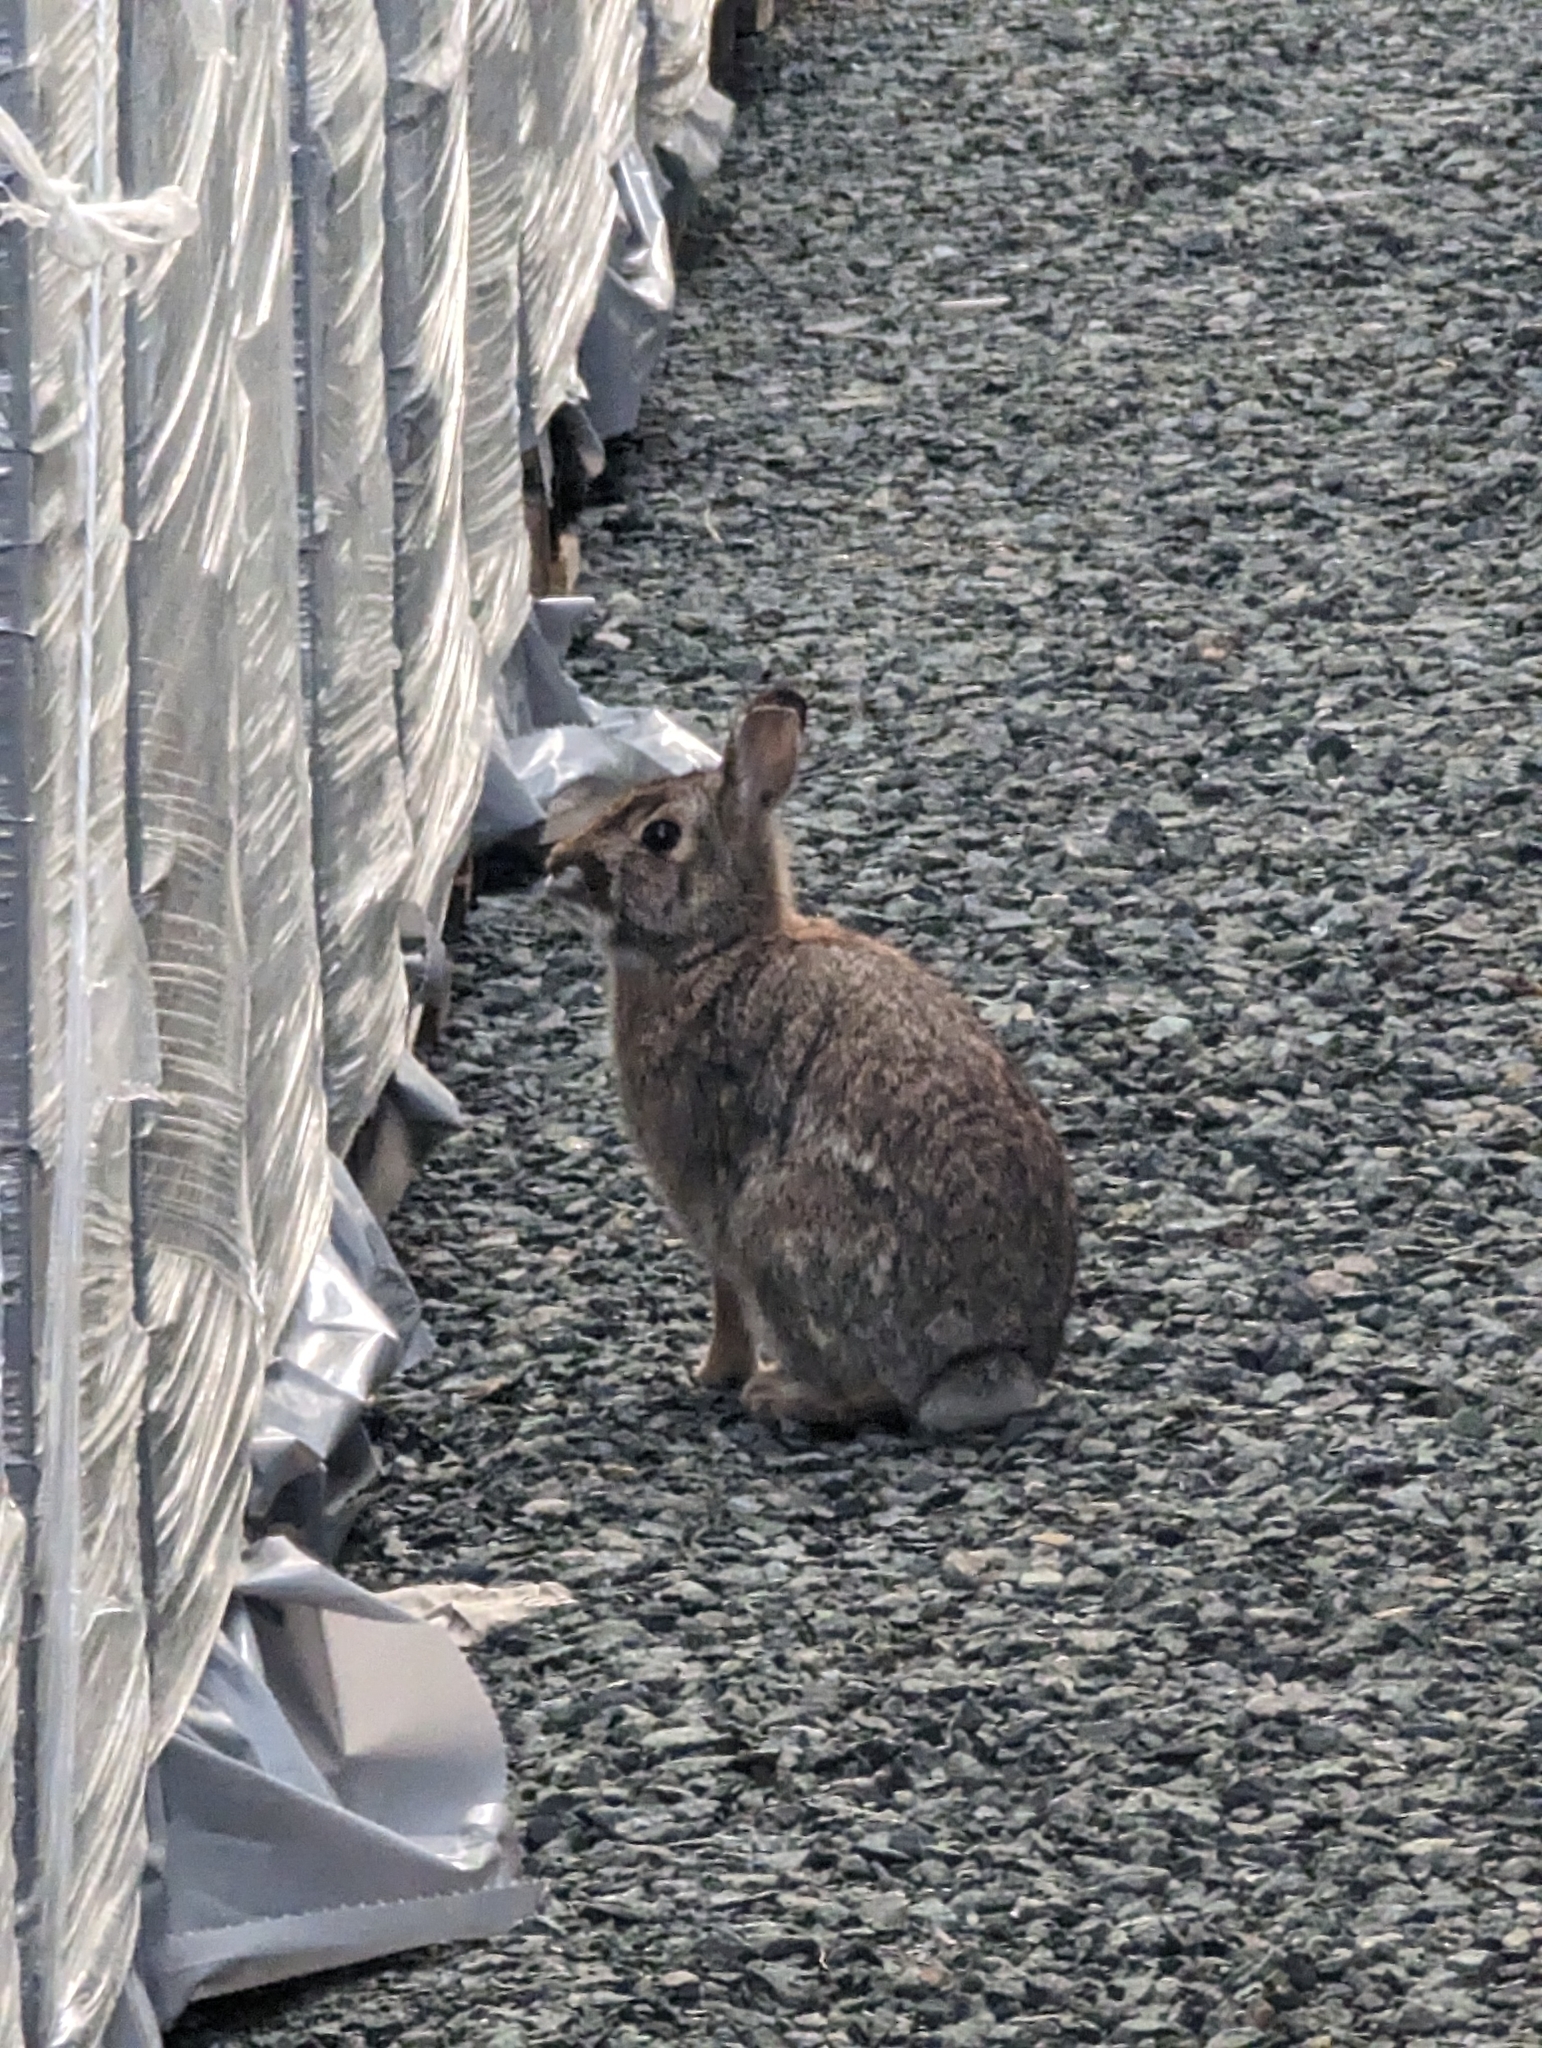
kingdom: Animalia
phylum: Chordata
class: Mammalia
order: Lagomorpha
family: Leporidae
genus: Sylvilagus
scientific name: Sylvilagus floridanus
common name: Eastern cottontail
